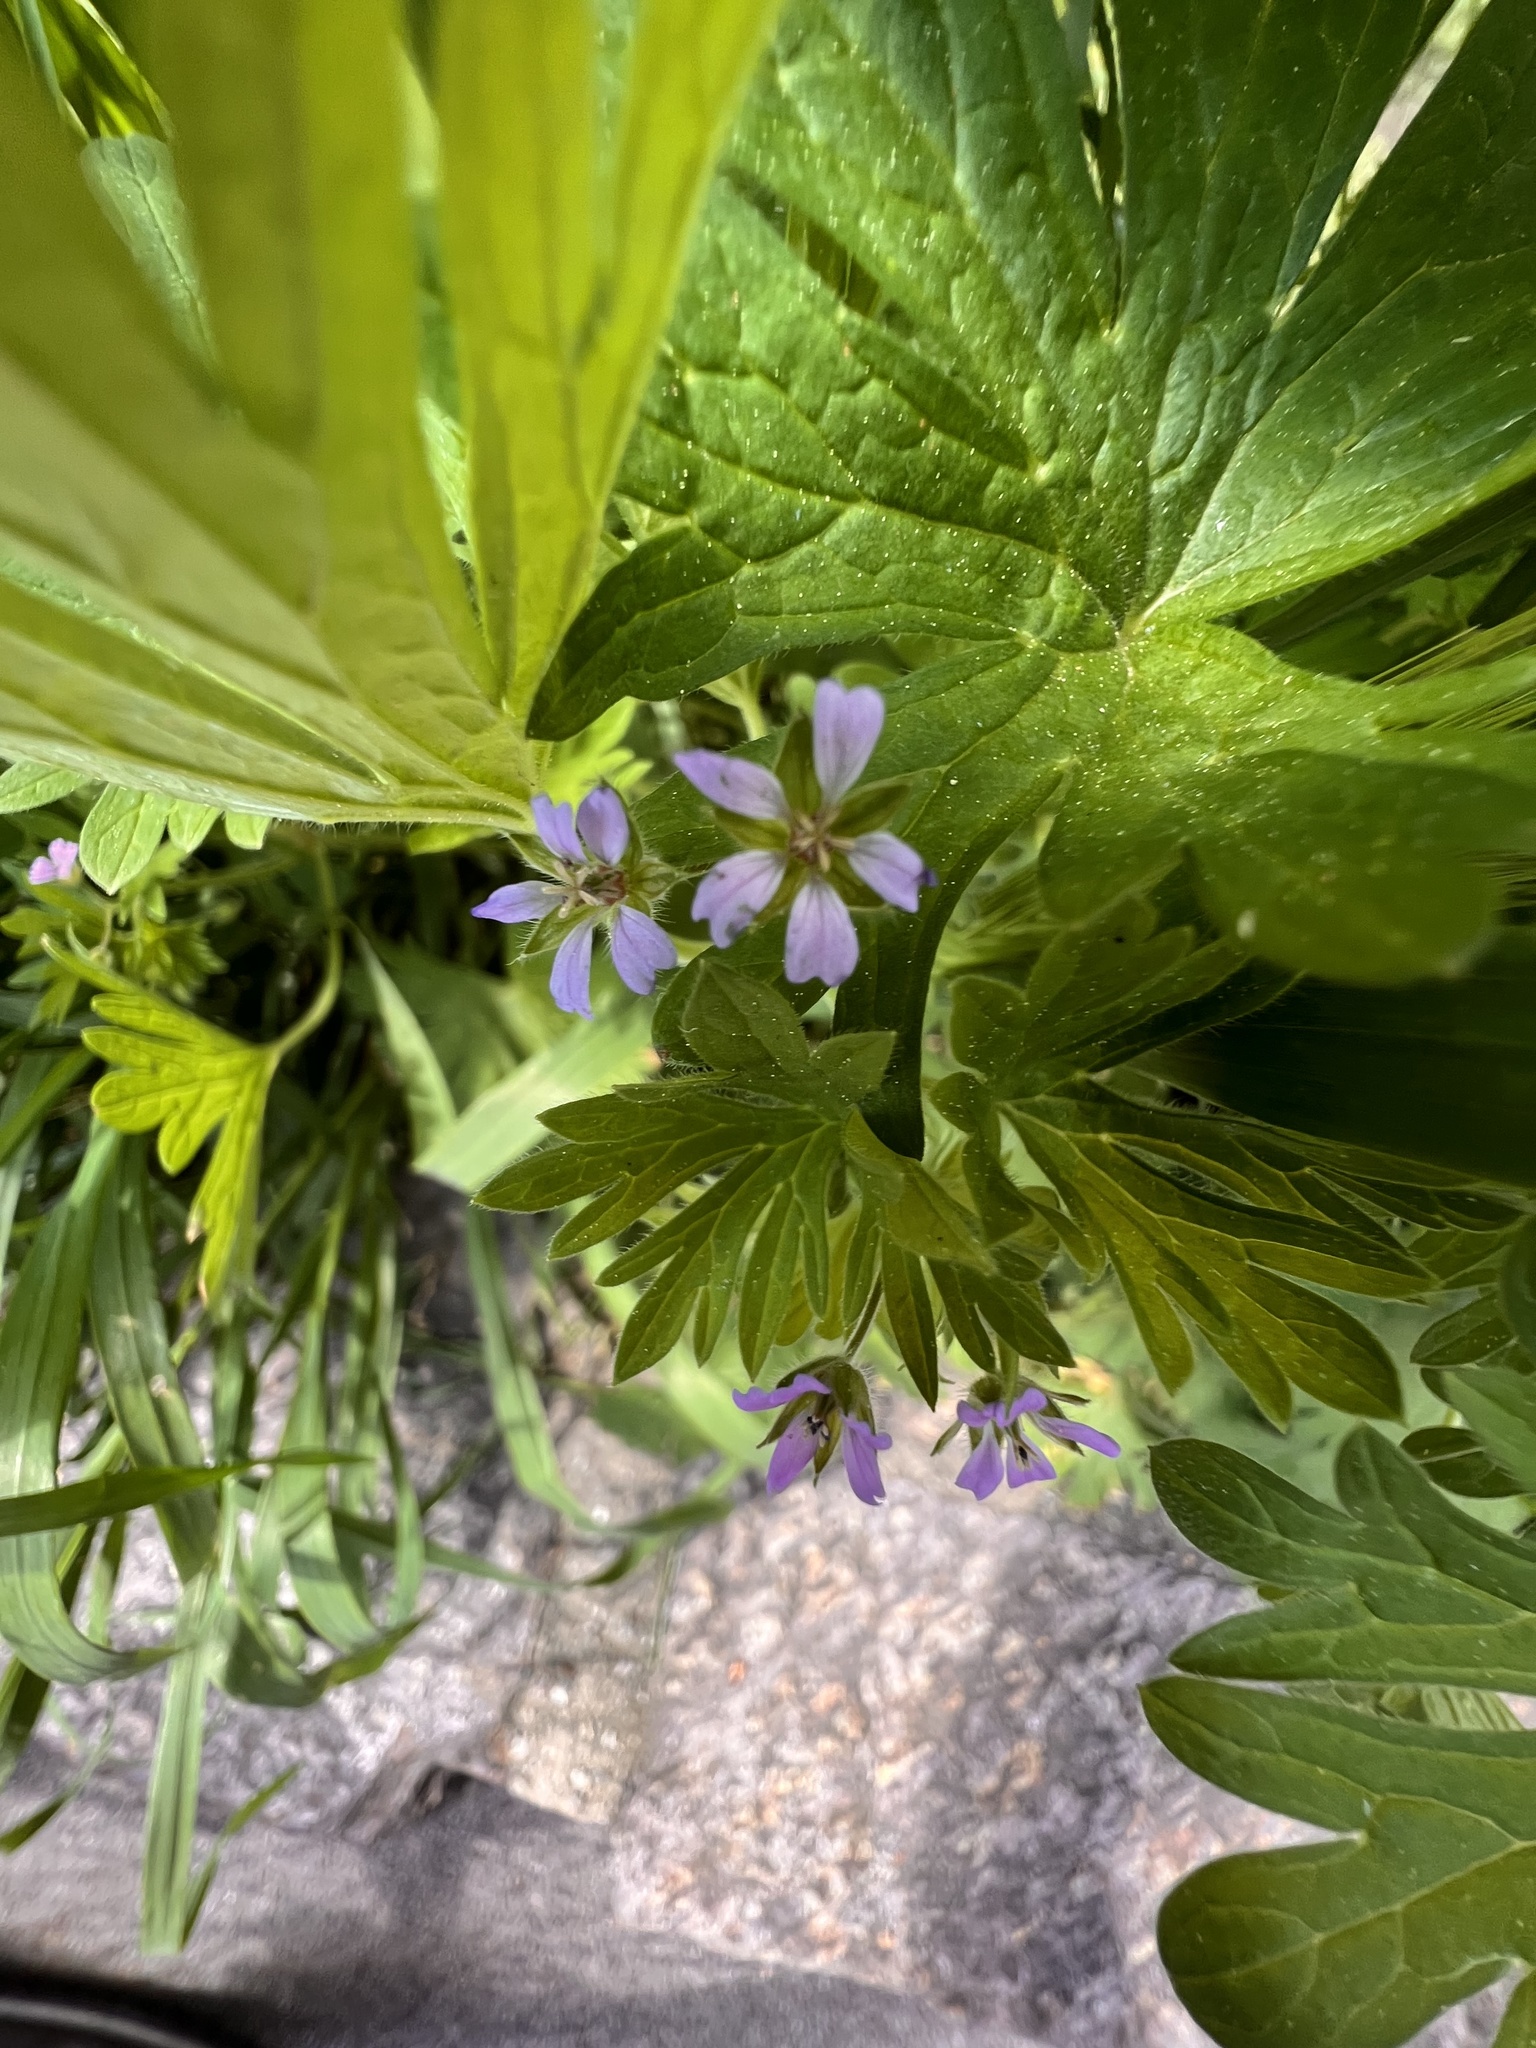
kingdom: Plantae
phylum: Tracheophyta
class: Magnoliopsida
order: Geraniales
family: Geraniaceae
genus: Geranium
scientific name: Geranium pusillum
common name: Small geranium
